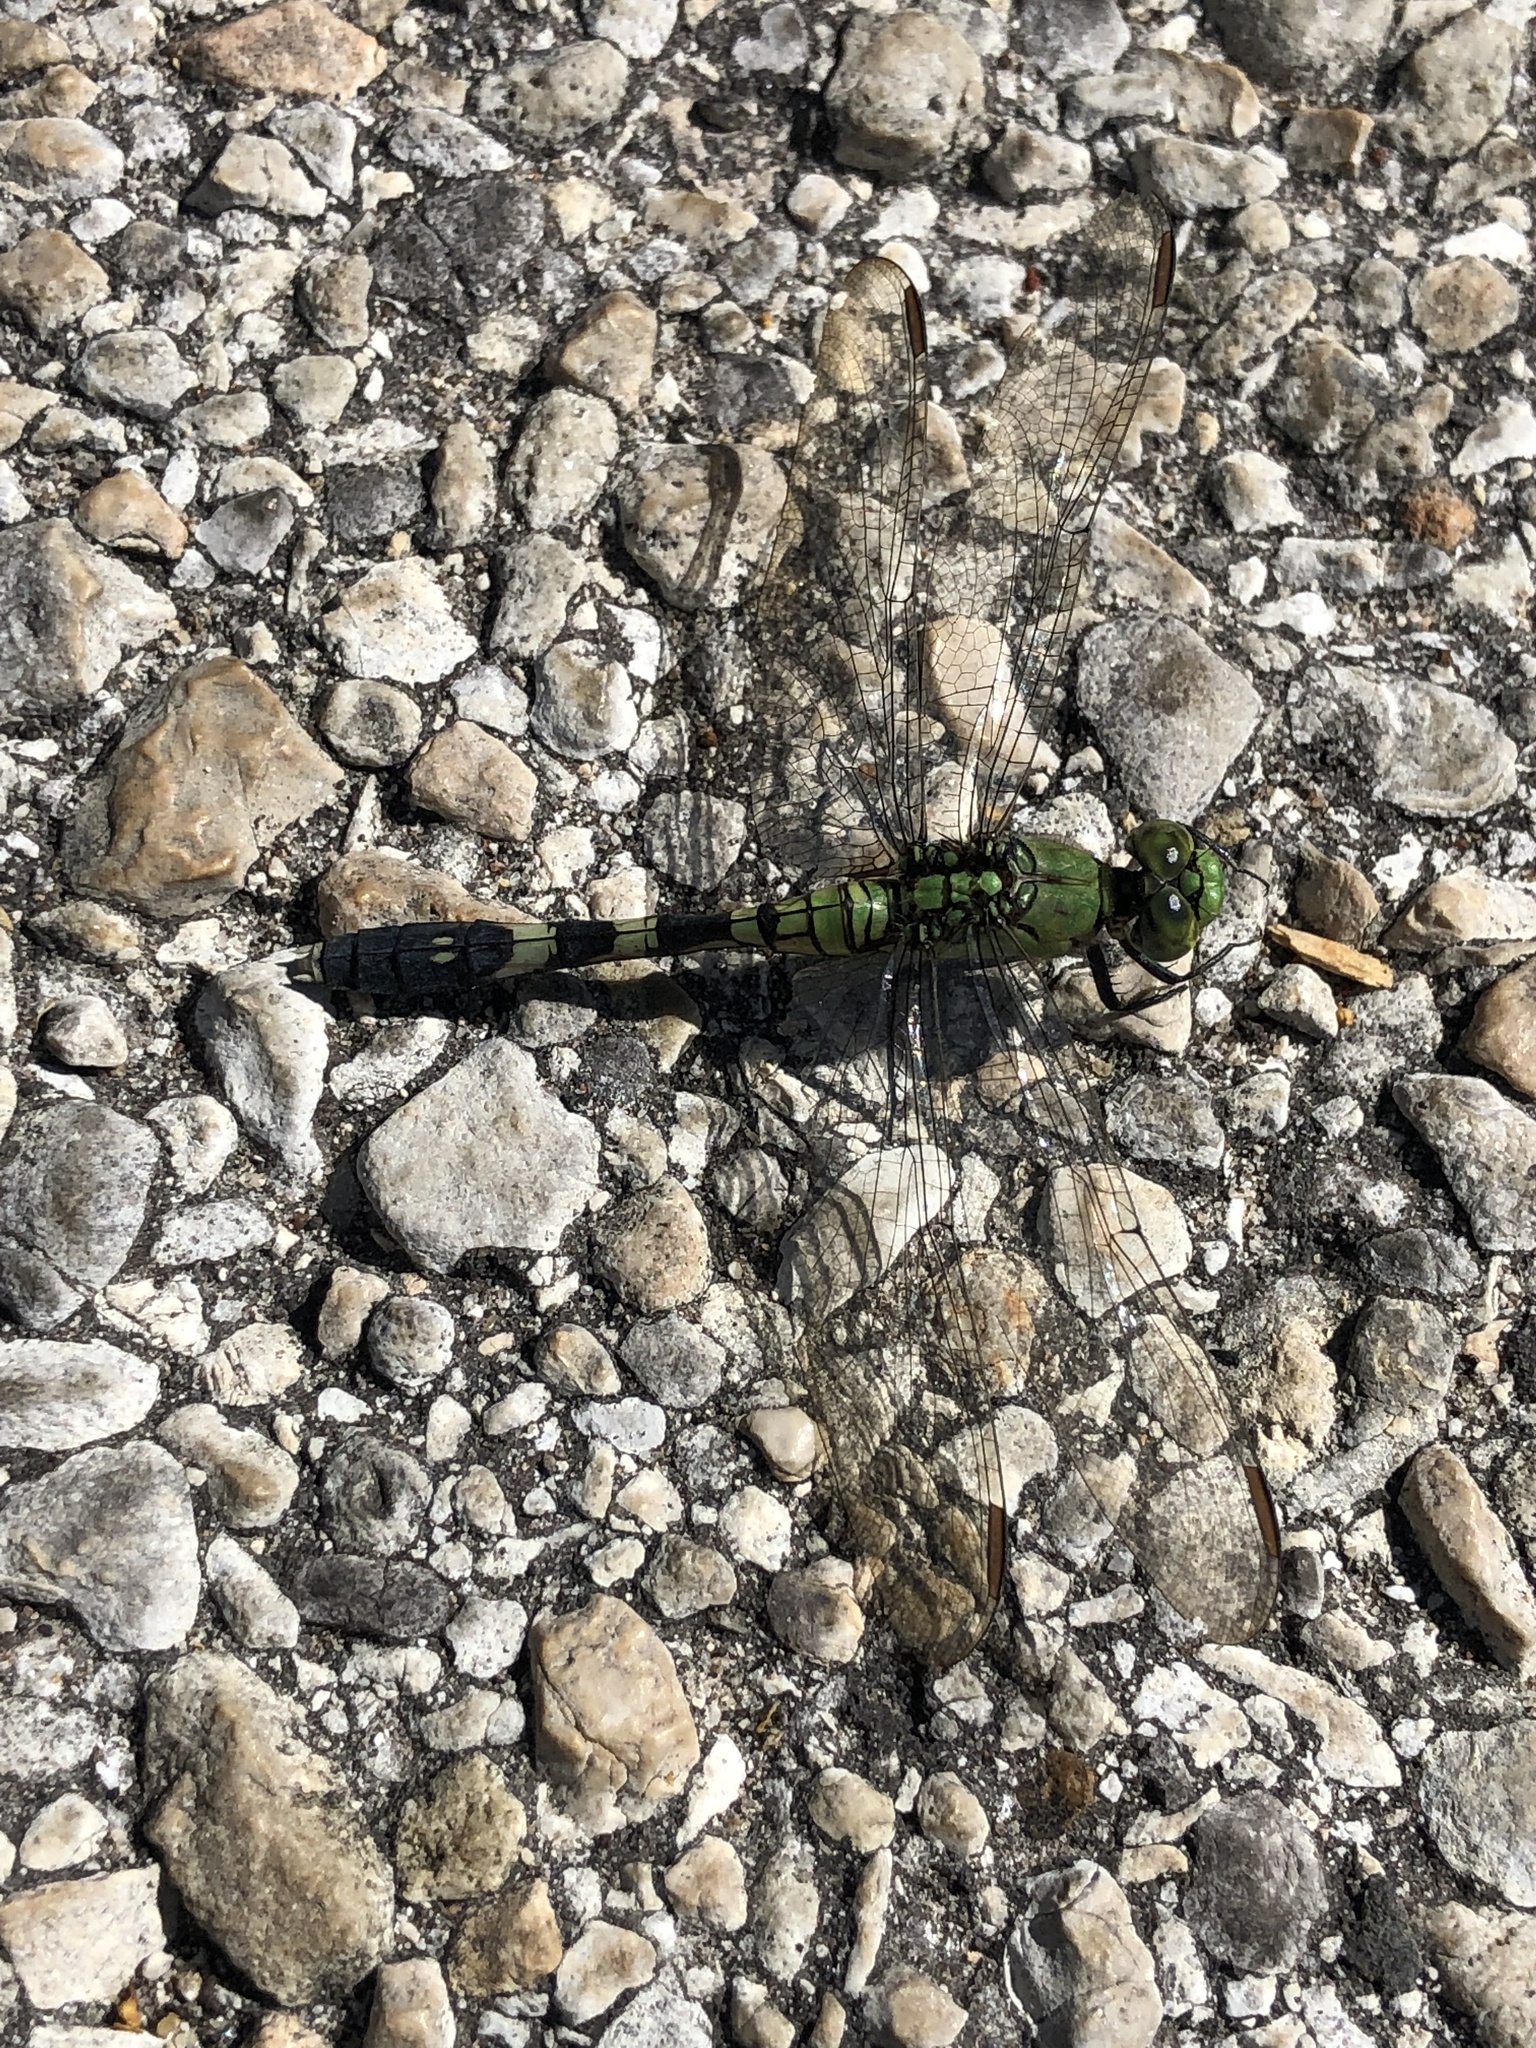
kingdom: Animalia
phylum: Arthropoda
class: Insecta
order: Odonata
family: Libellulidae
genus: Erythemis
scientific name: Erythemis simplicicollis
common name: Eastern pondhawk
